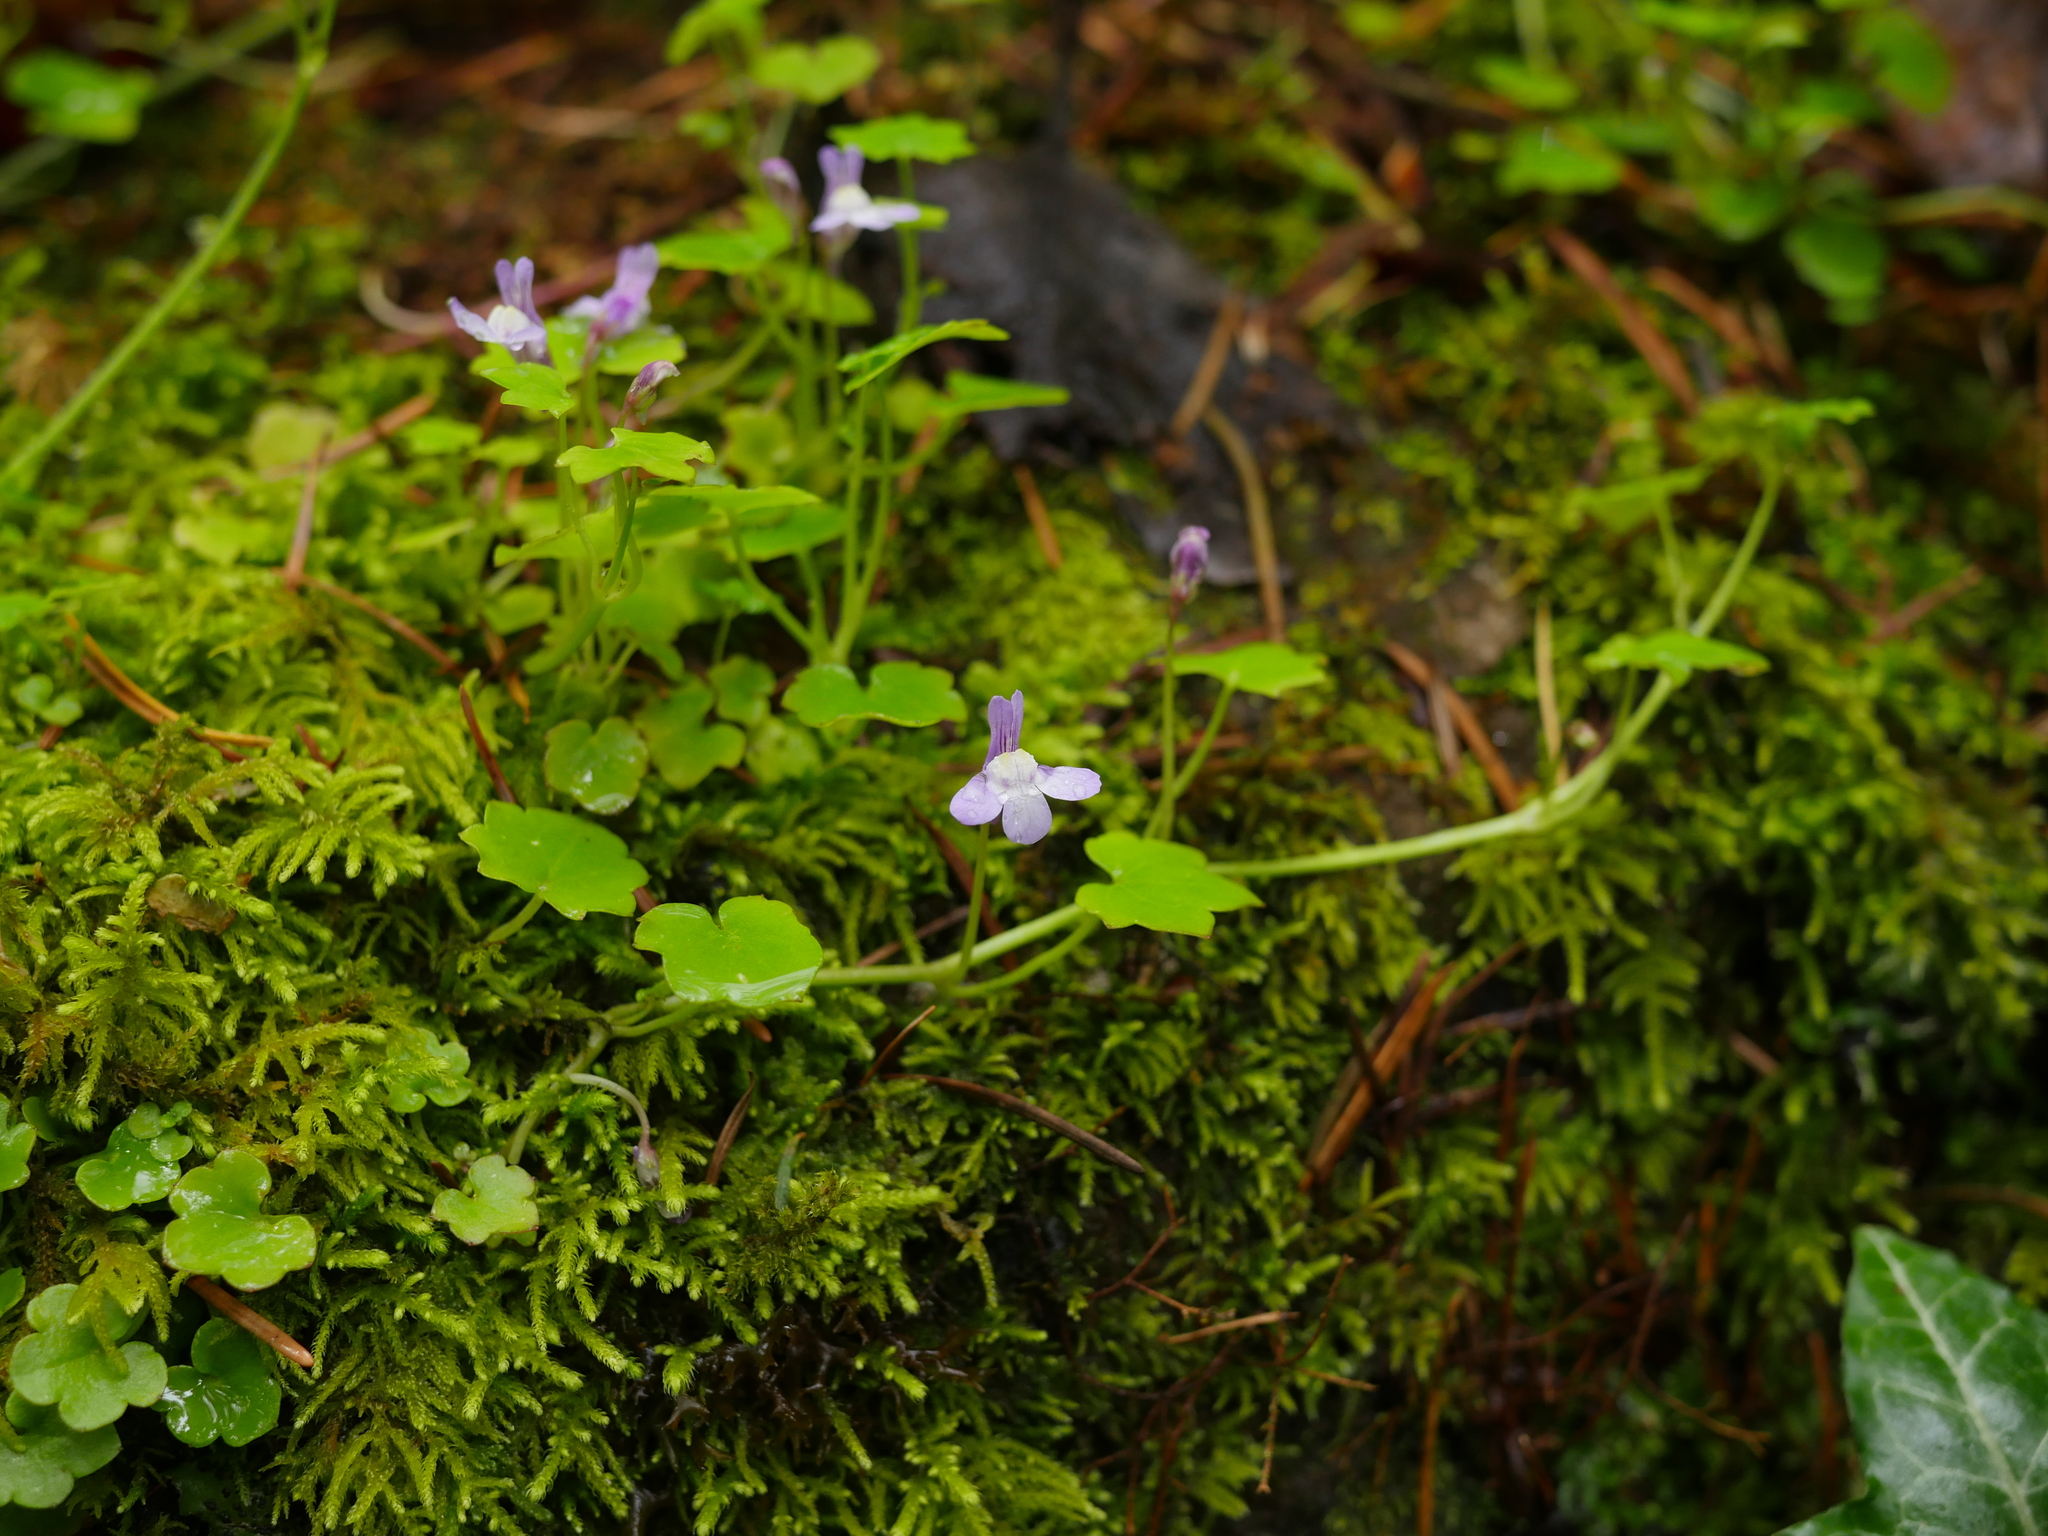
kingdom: Plantae
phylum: Tracheophyta
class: Magnoliopsida
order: Lamiales
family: Plantaginaceae
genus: Cymbalaria
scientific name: Cymbalaria muralis
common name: Ivy-leaved toadflax
